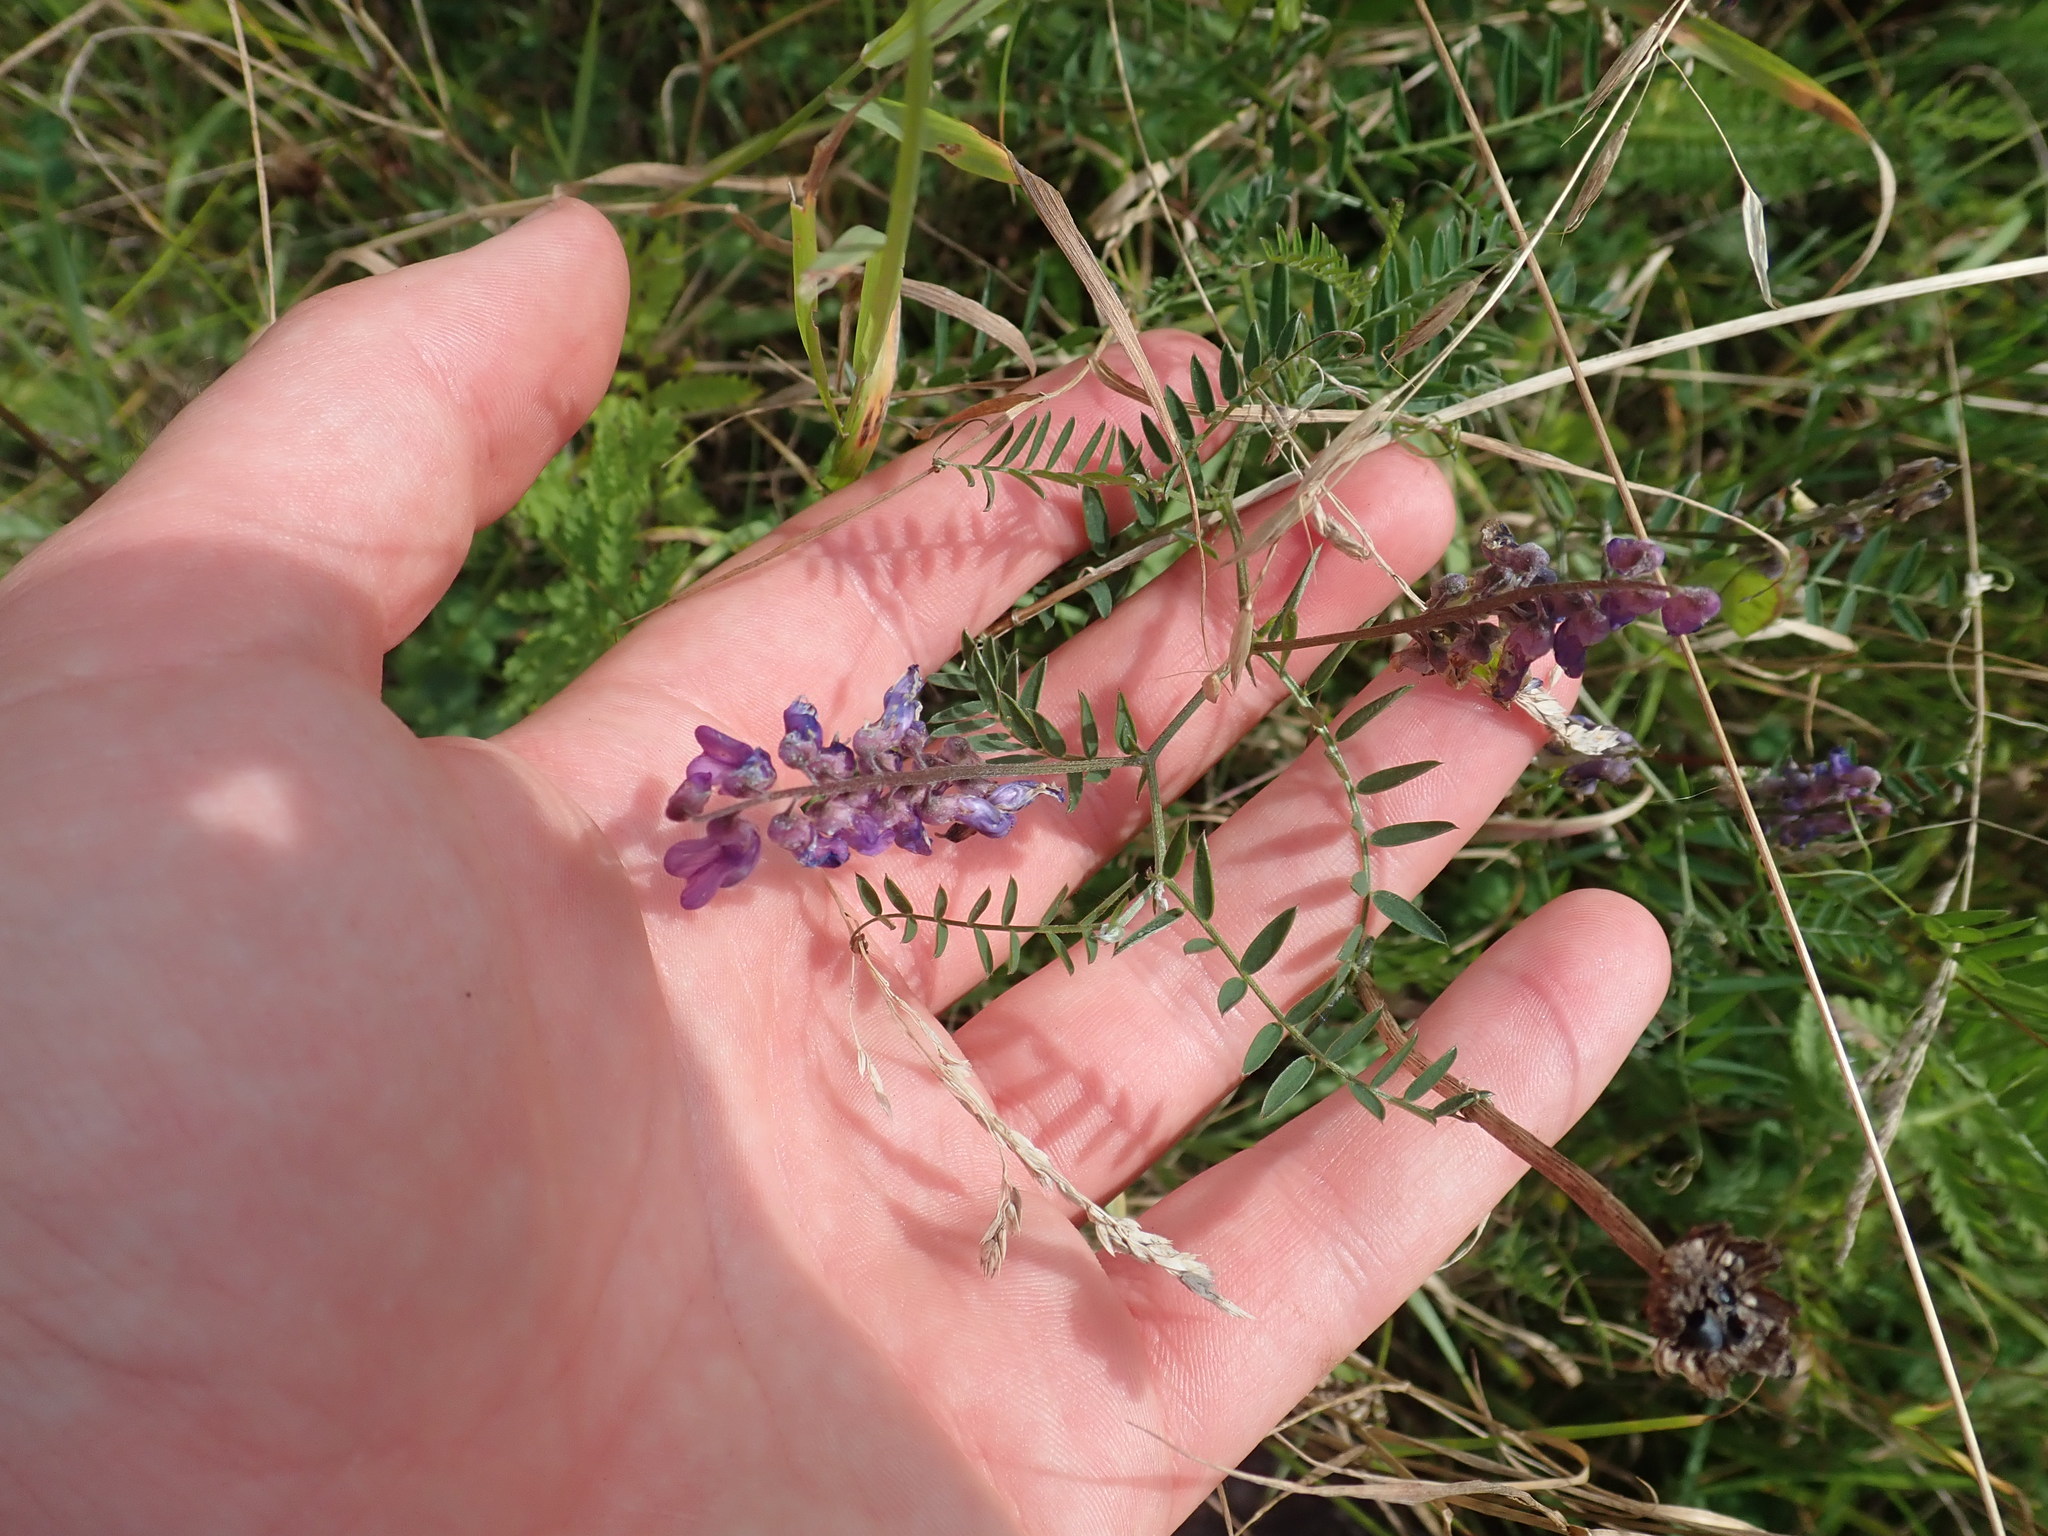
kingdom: Plantae
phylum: Tracheophyta
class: Magnoliopsida
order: Fabales
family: Fabaceae
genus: Vicia
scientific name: Vicia cracca
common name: Bird vetch
